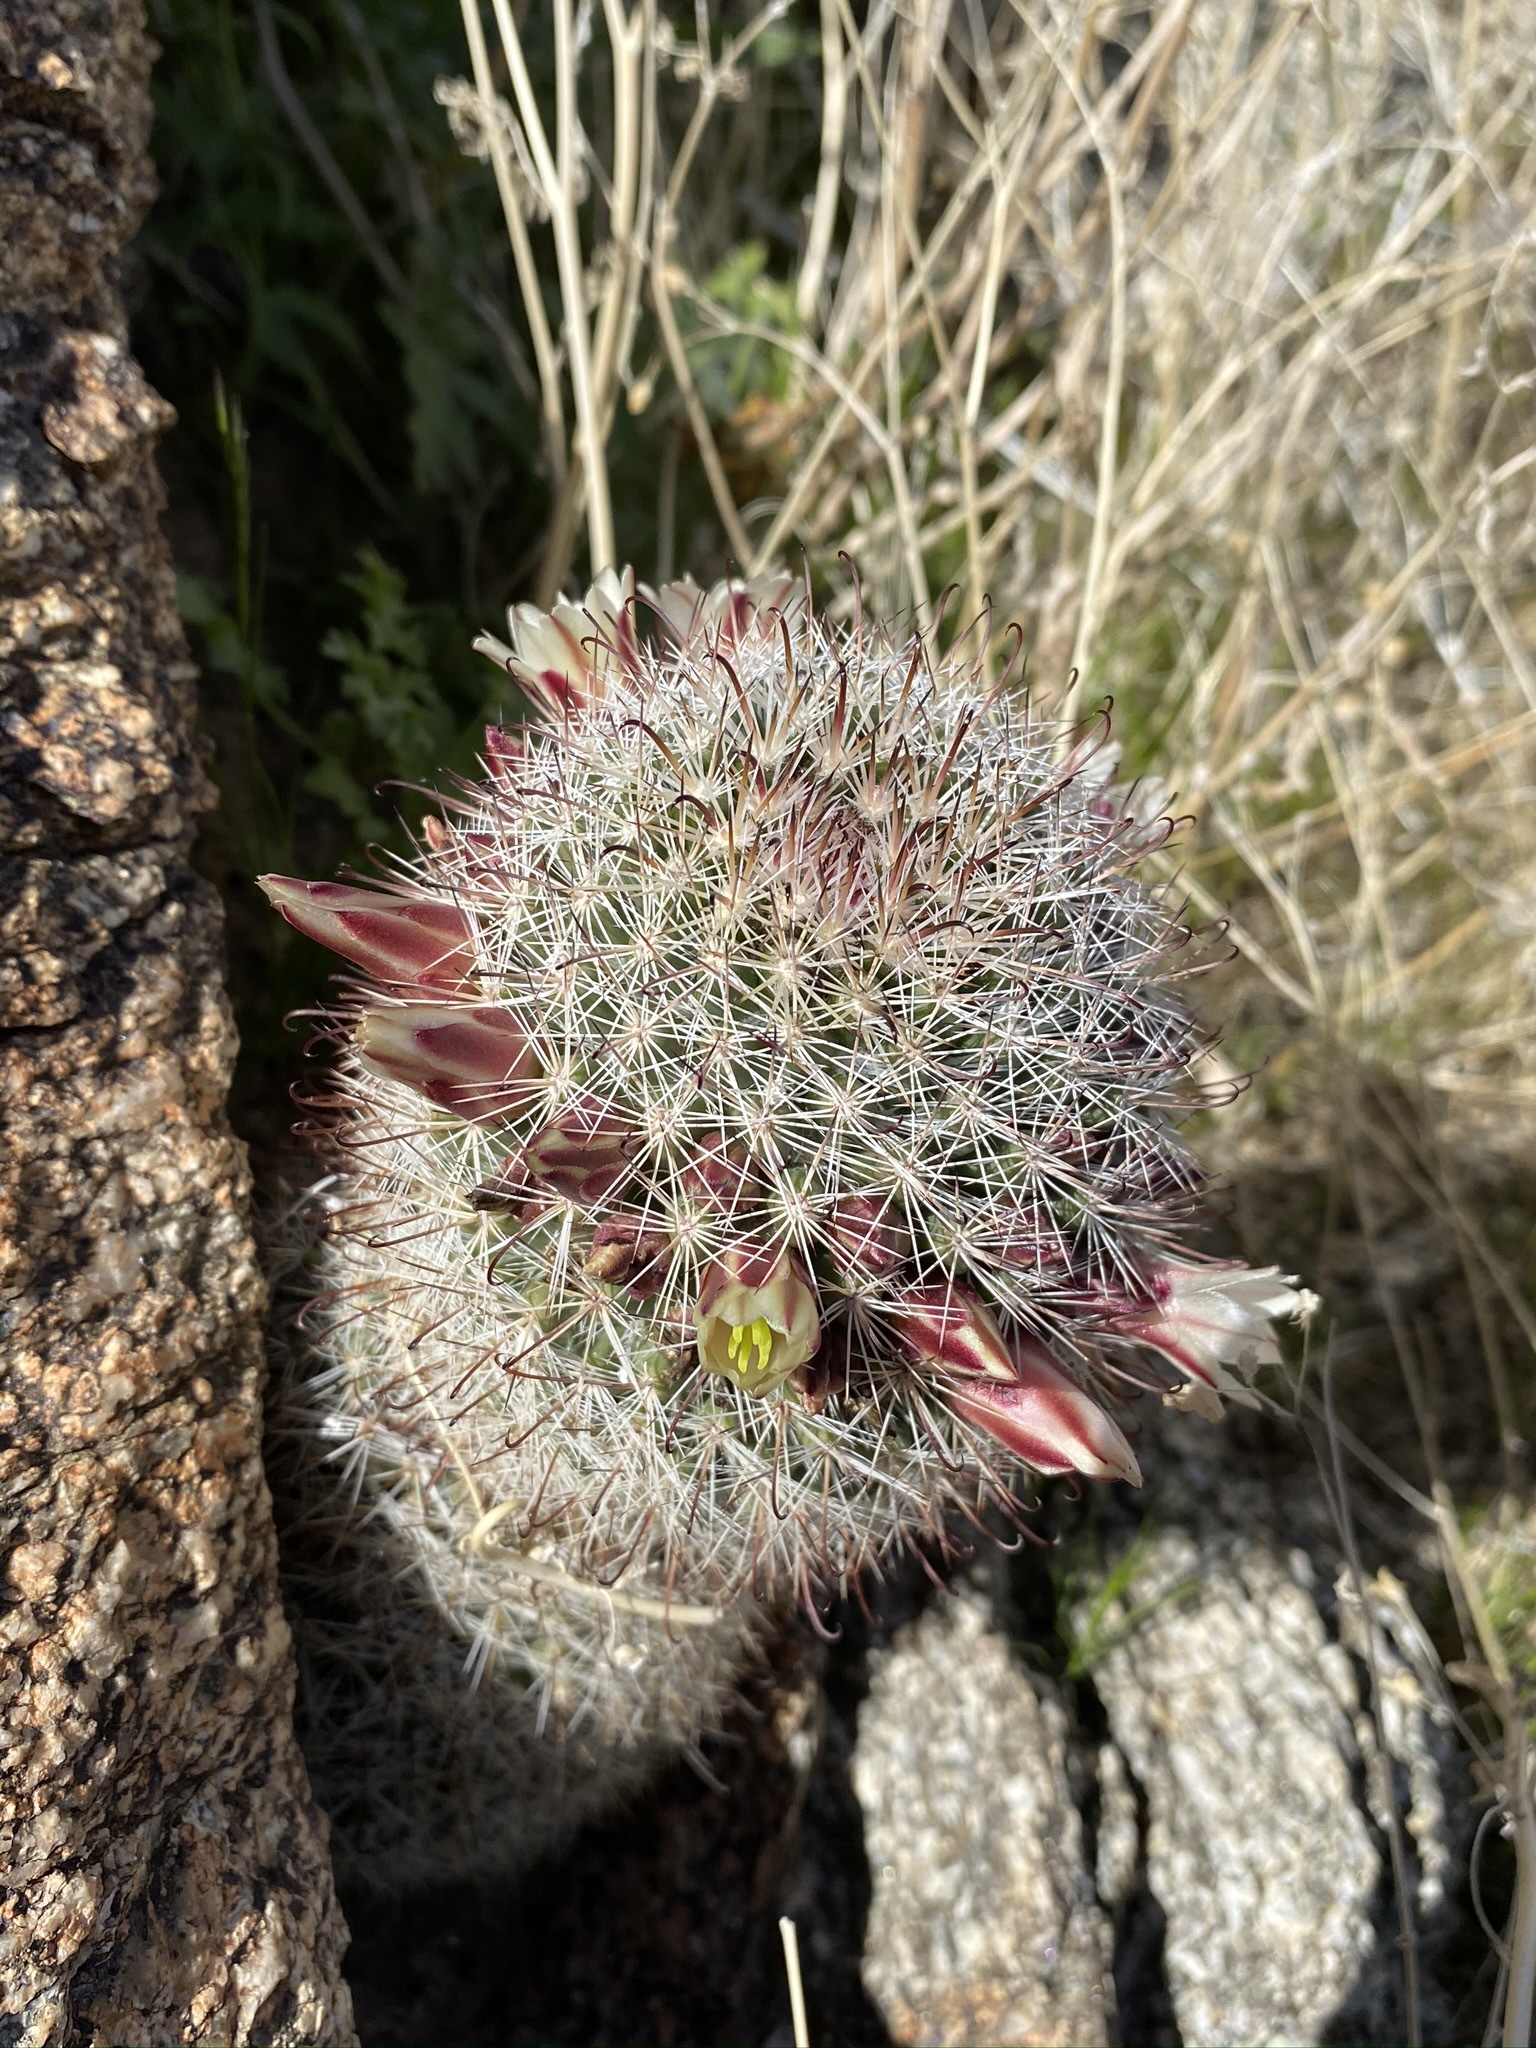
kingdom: Plantae
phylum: Tracheophyta
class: Magnoliopsida
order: Caryophyllales
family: Cactaceae
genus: Cochemiea
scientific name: Cochemiea dioica
